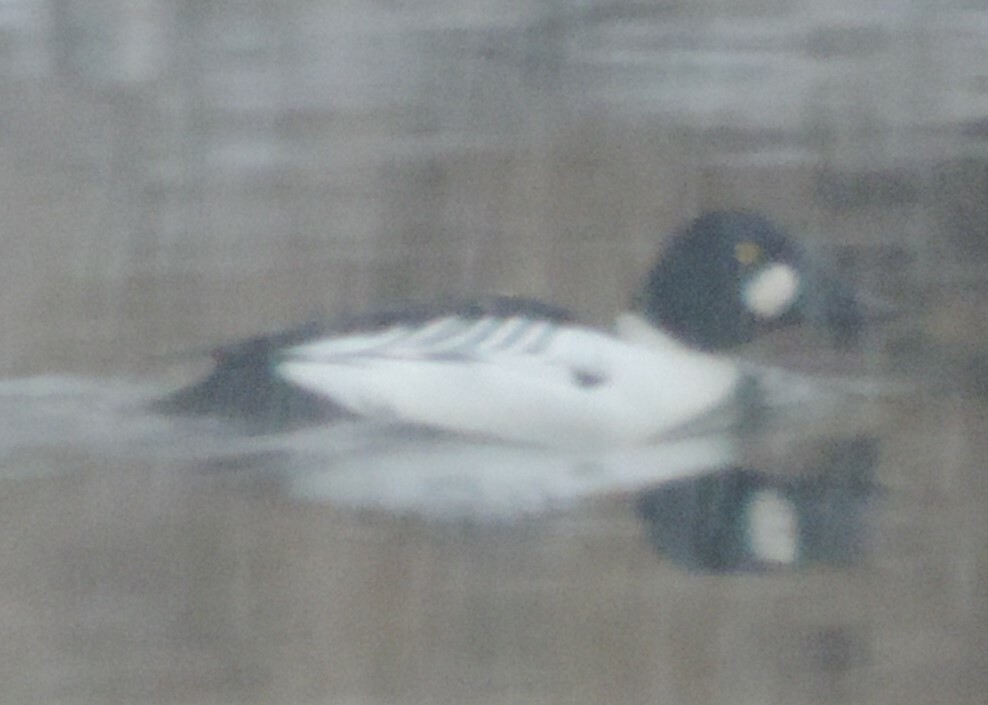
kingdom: Animalia
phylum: Chordata
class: Aves
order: Anseriformes
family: Anatidae
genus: Bucephala
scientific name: Bucephala clangula
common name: Common goldeneye
